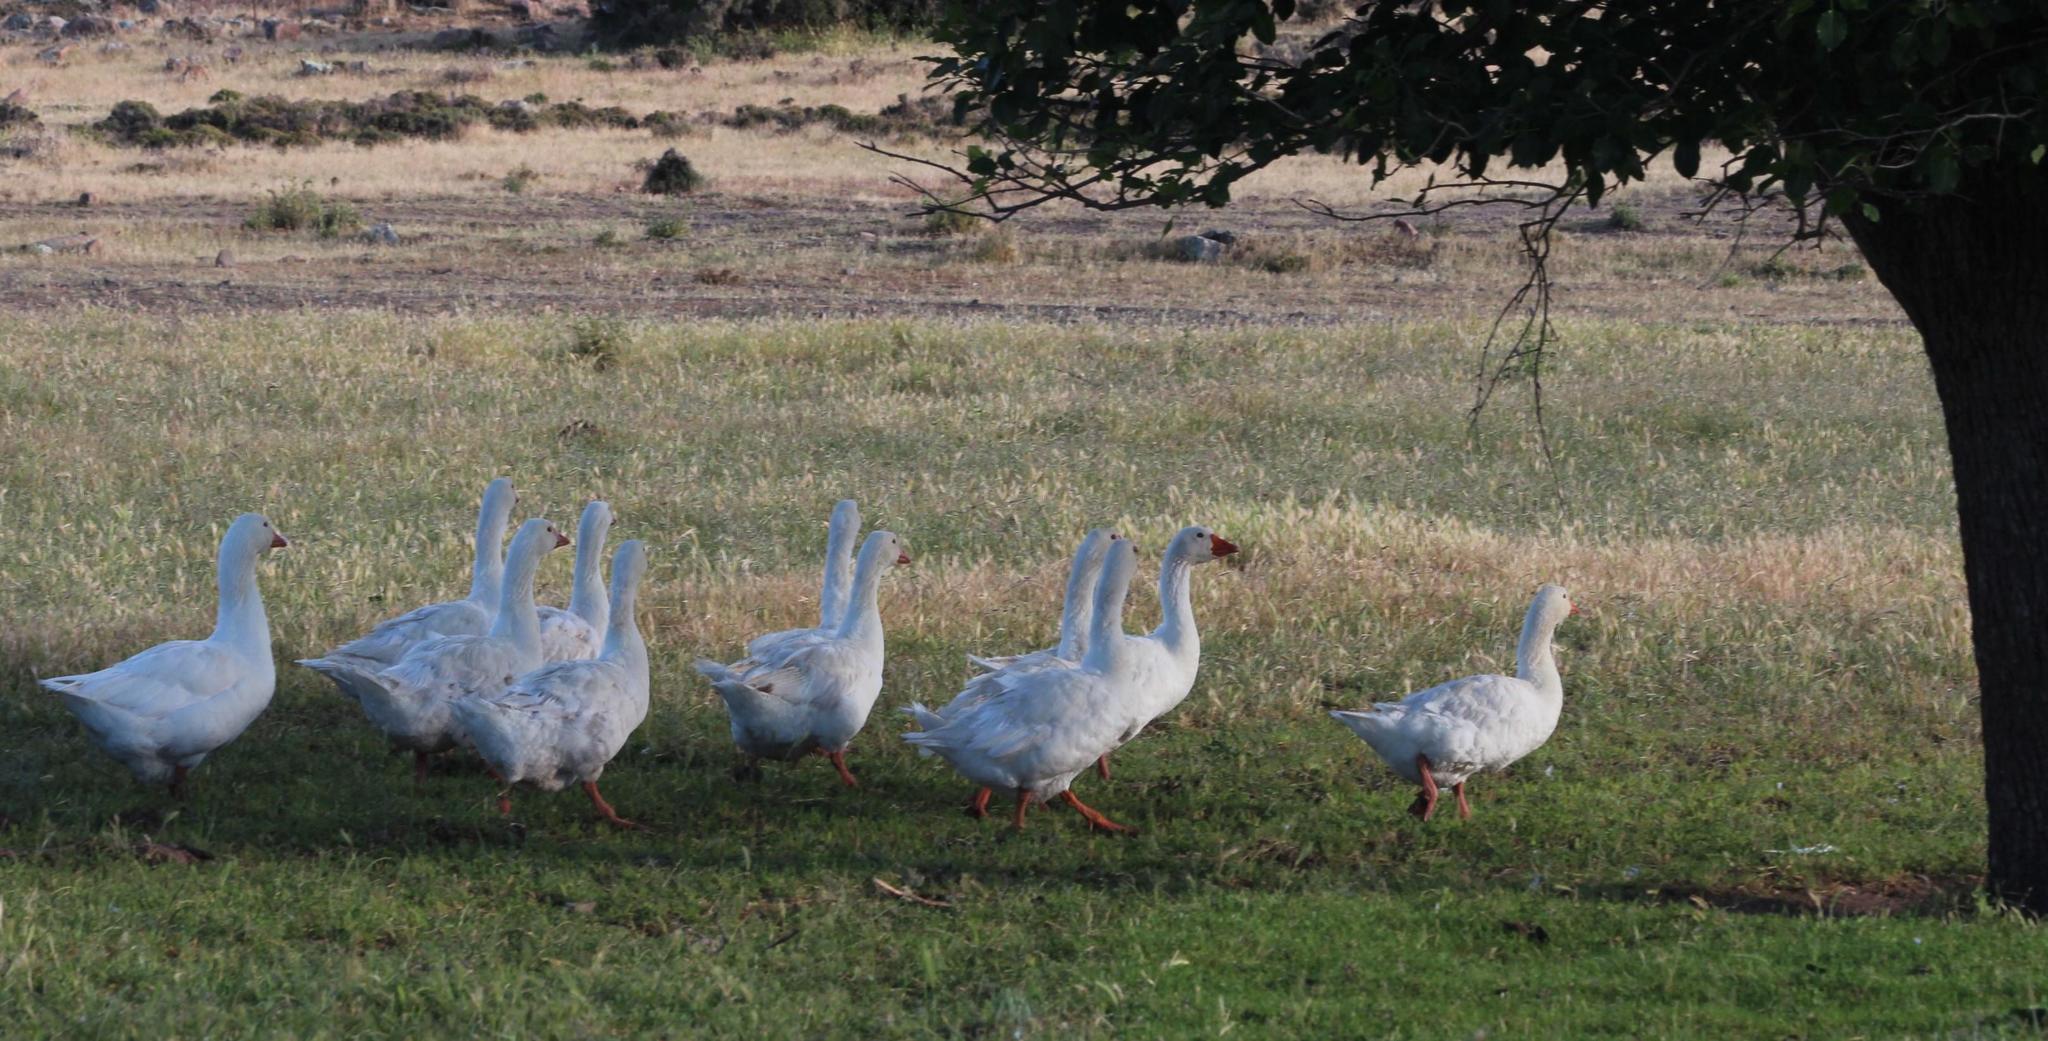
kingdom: Animalia
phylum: Chordata
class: Aves
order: Anseriformes
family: Anatidae
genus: Anser
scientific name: Anser anser
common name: Greylag goose
